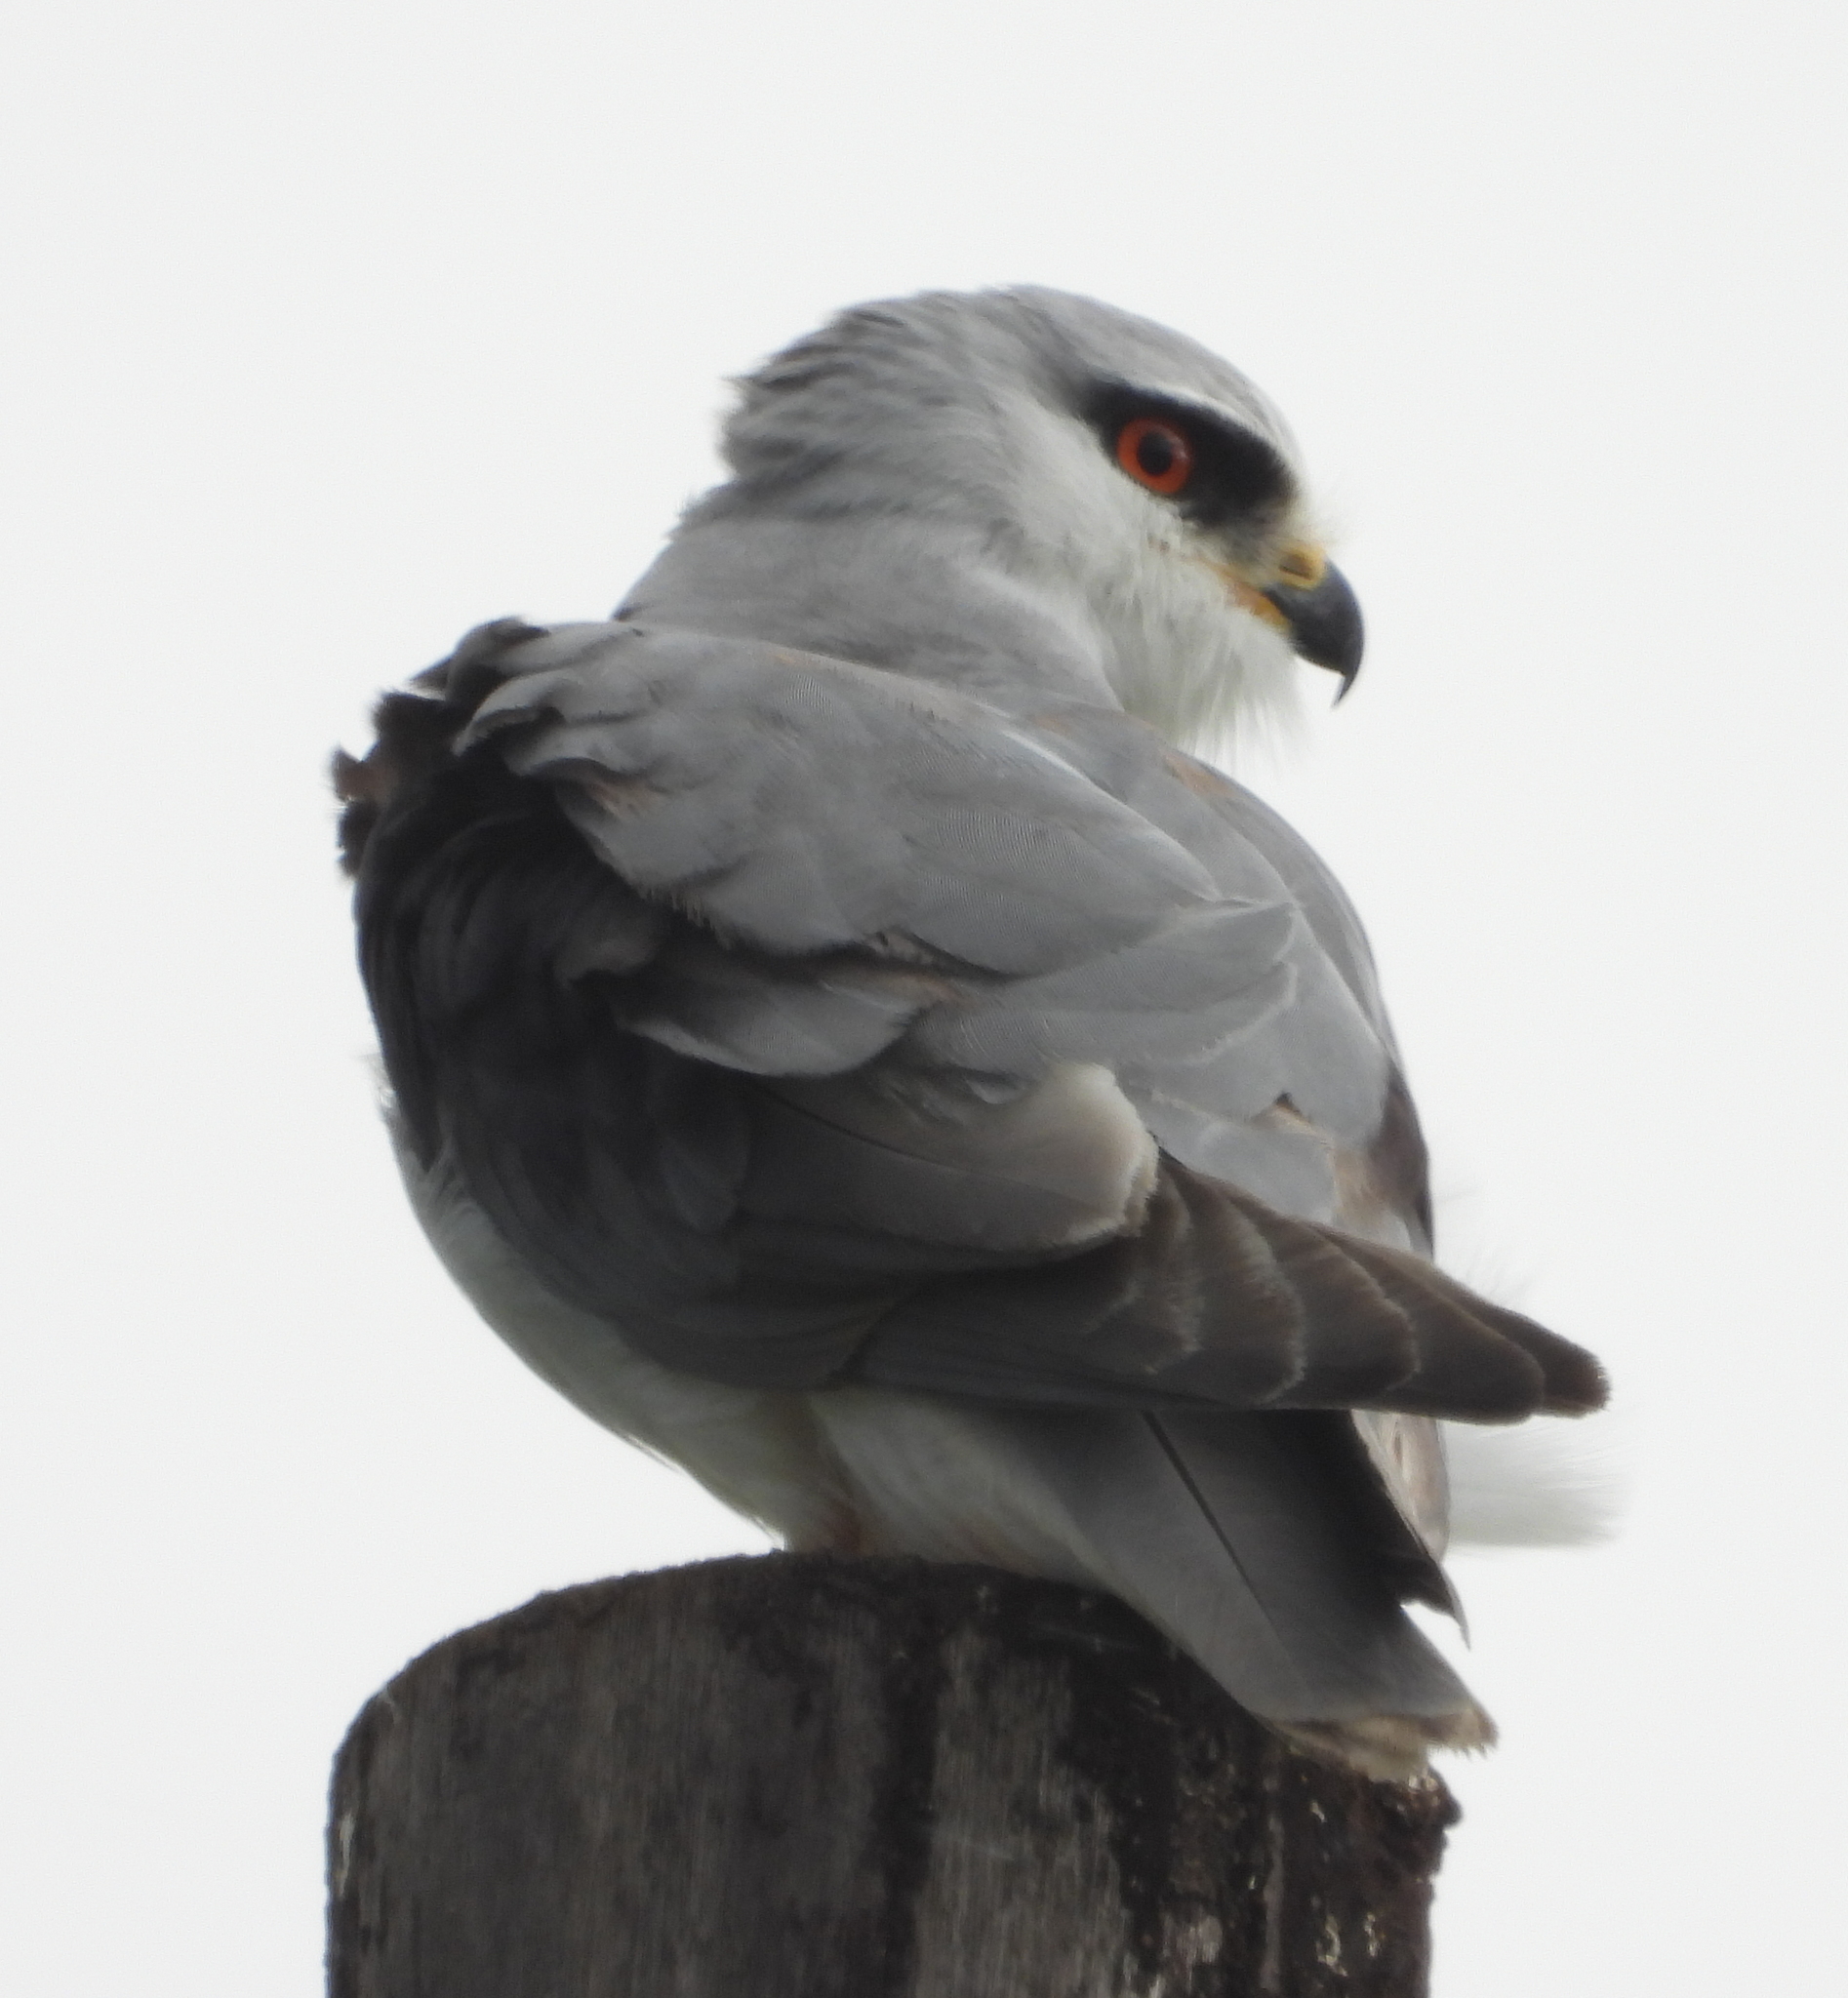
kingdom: Animalia
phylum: Chordata
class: Aves
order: Accipitriformes
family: Accipitridae
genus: Elanus
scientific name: Elanus caeruleus
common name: Black-winged kite
